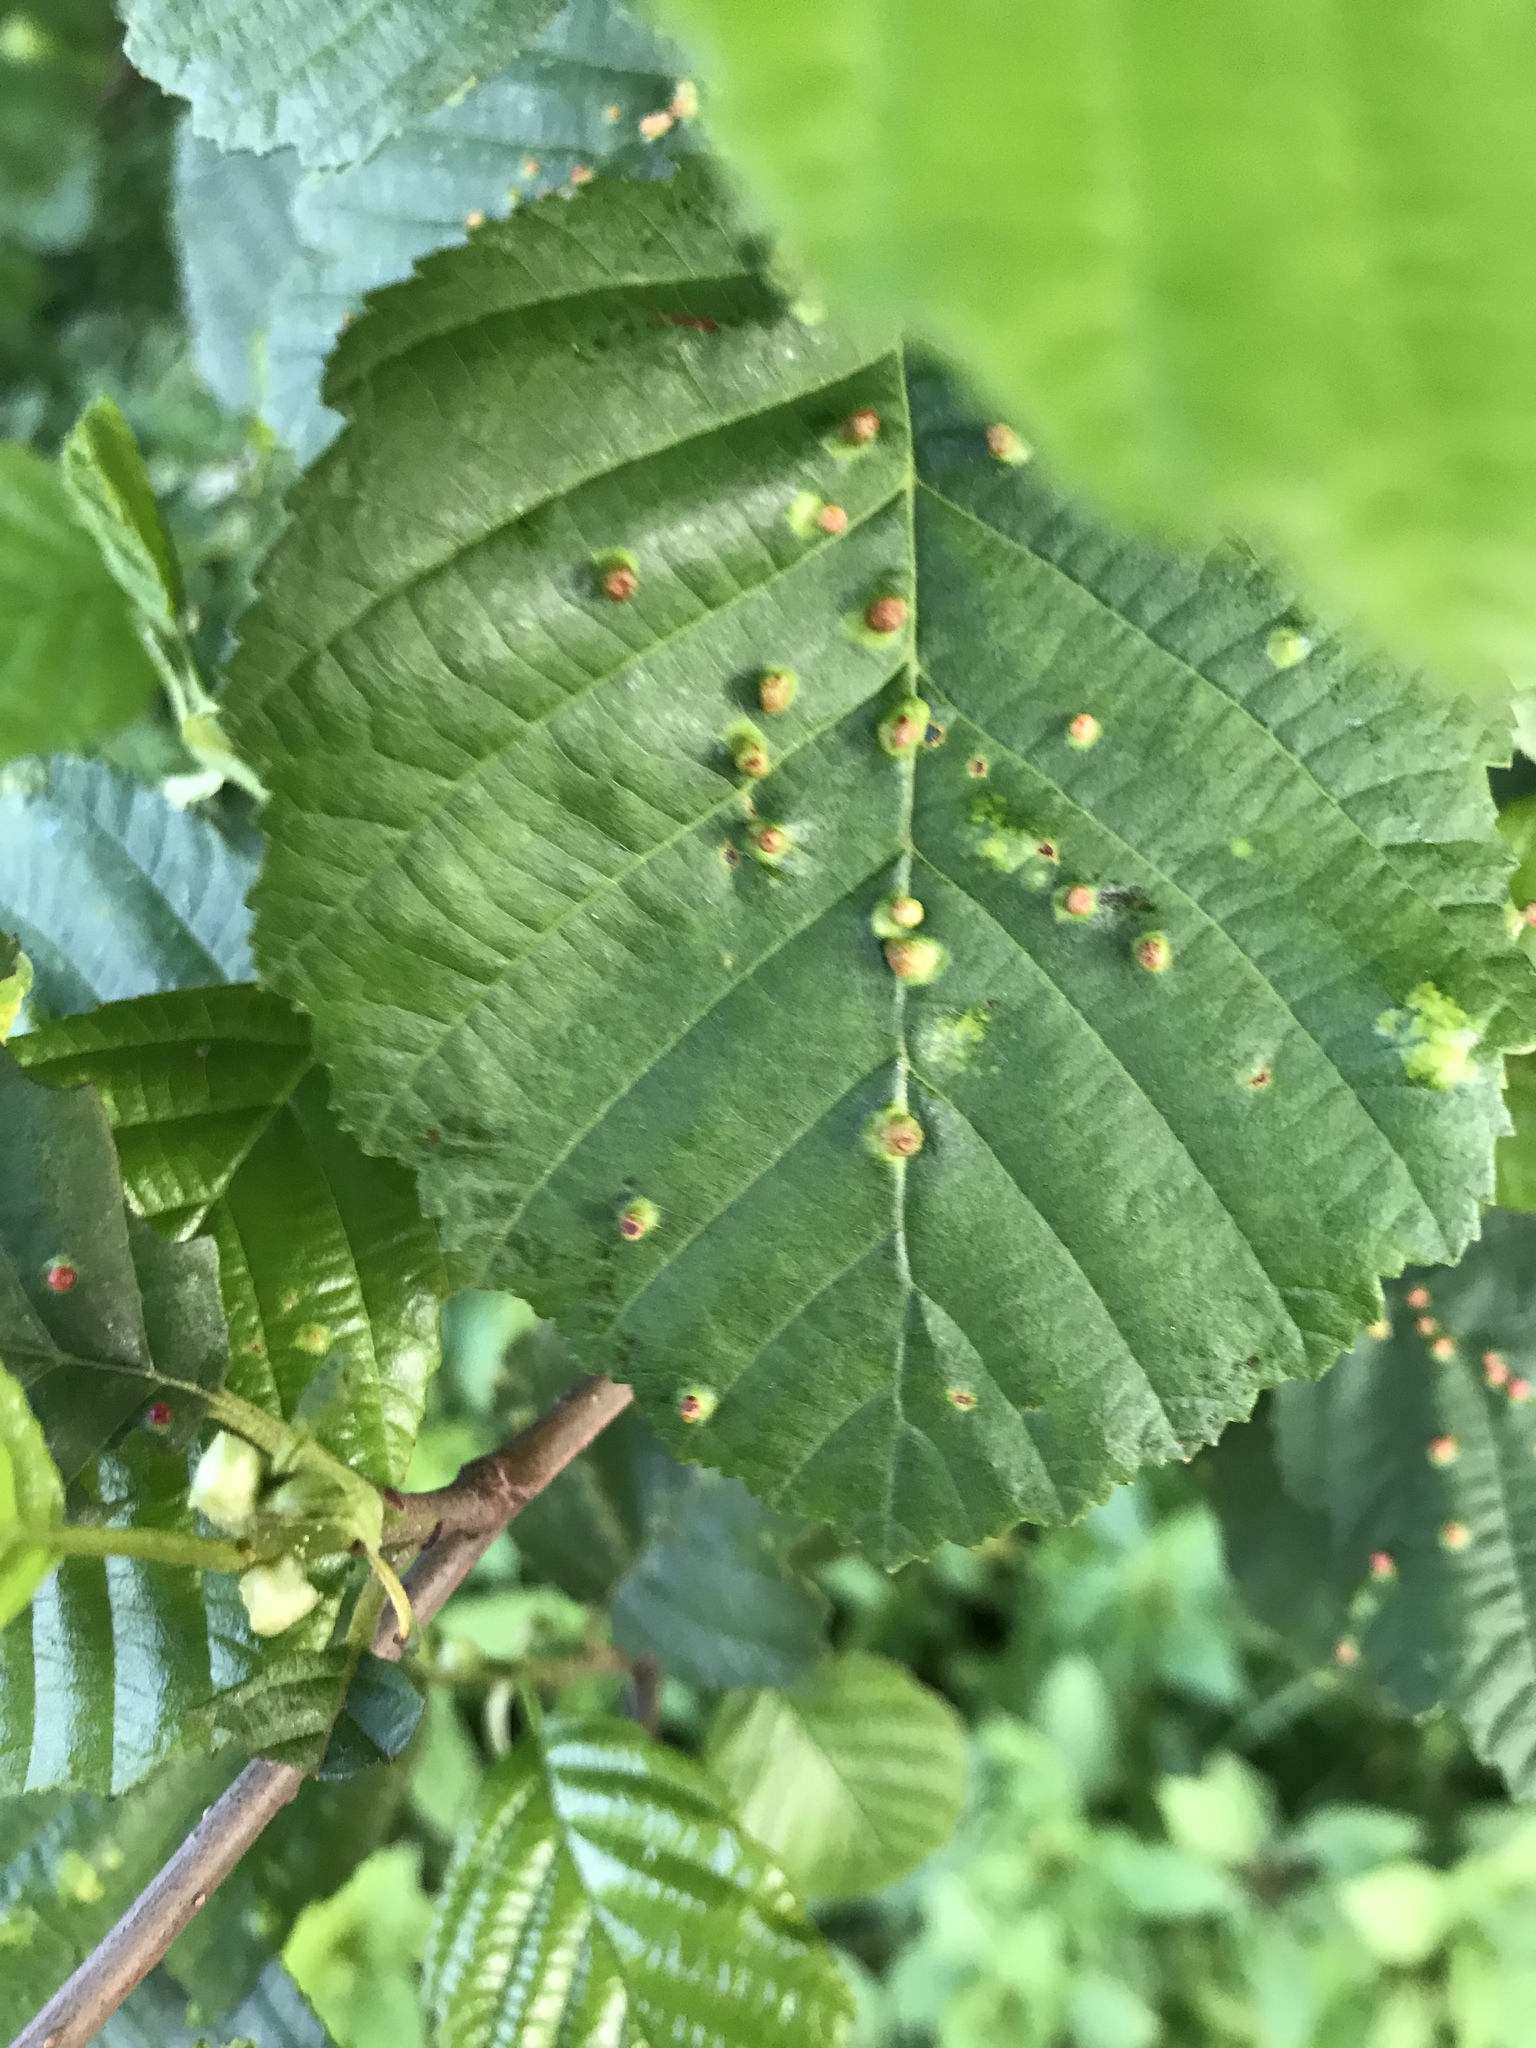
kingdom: Animalia
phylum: Arthropoda
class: Arachnida
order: Trombidiformes
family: Eriophyidae
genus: Eriophyes
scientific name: Eriophyes laevis
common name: Alder leaf gall mite
